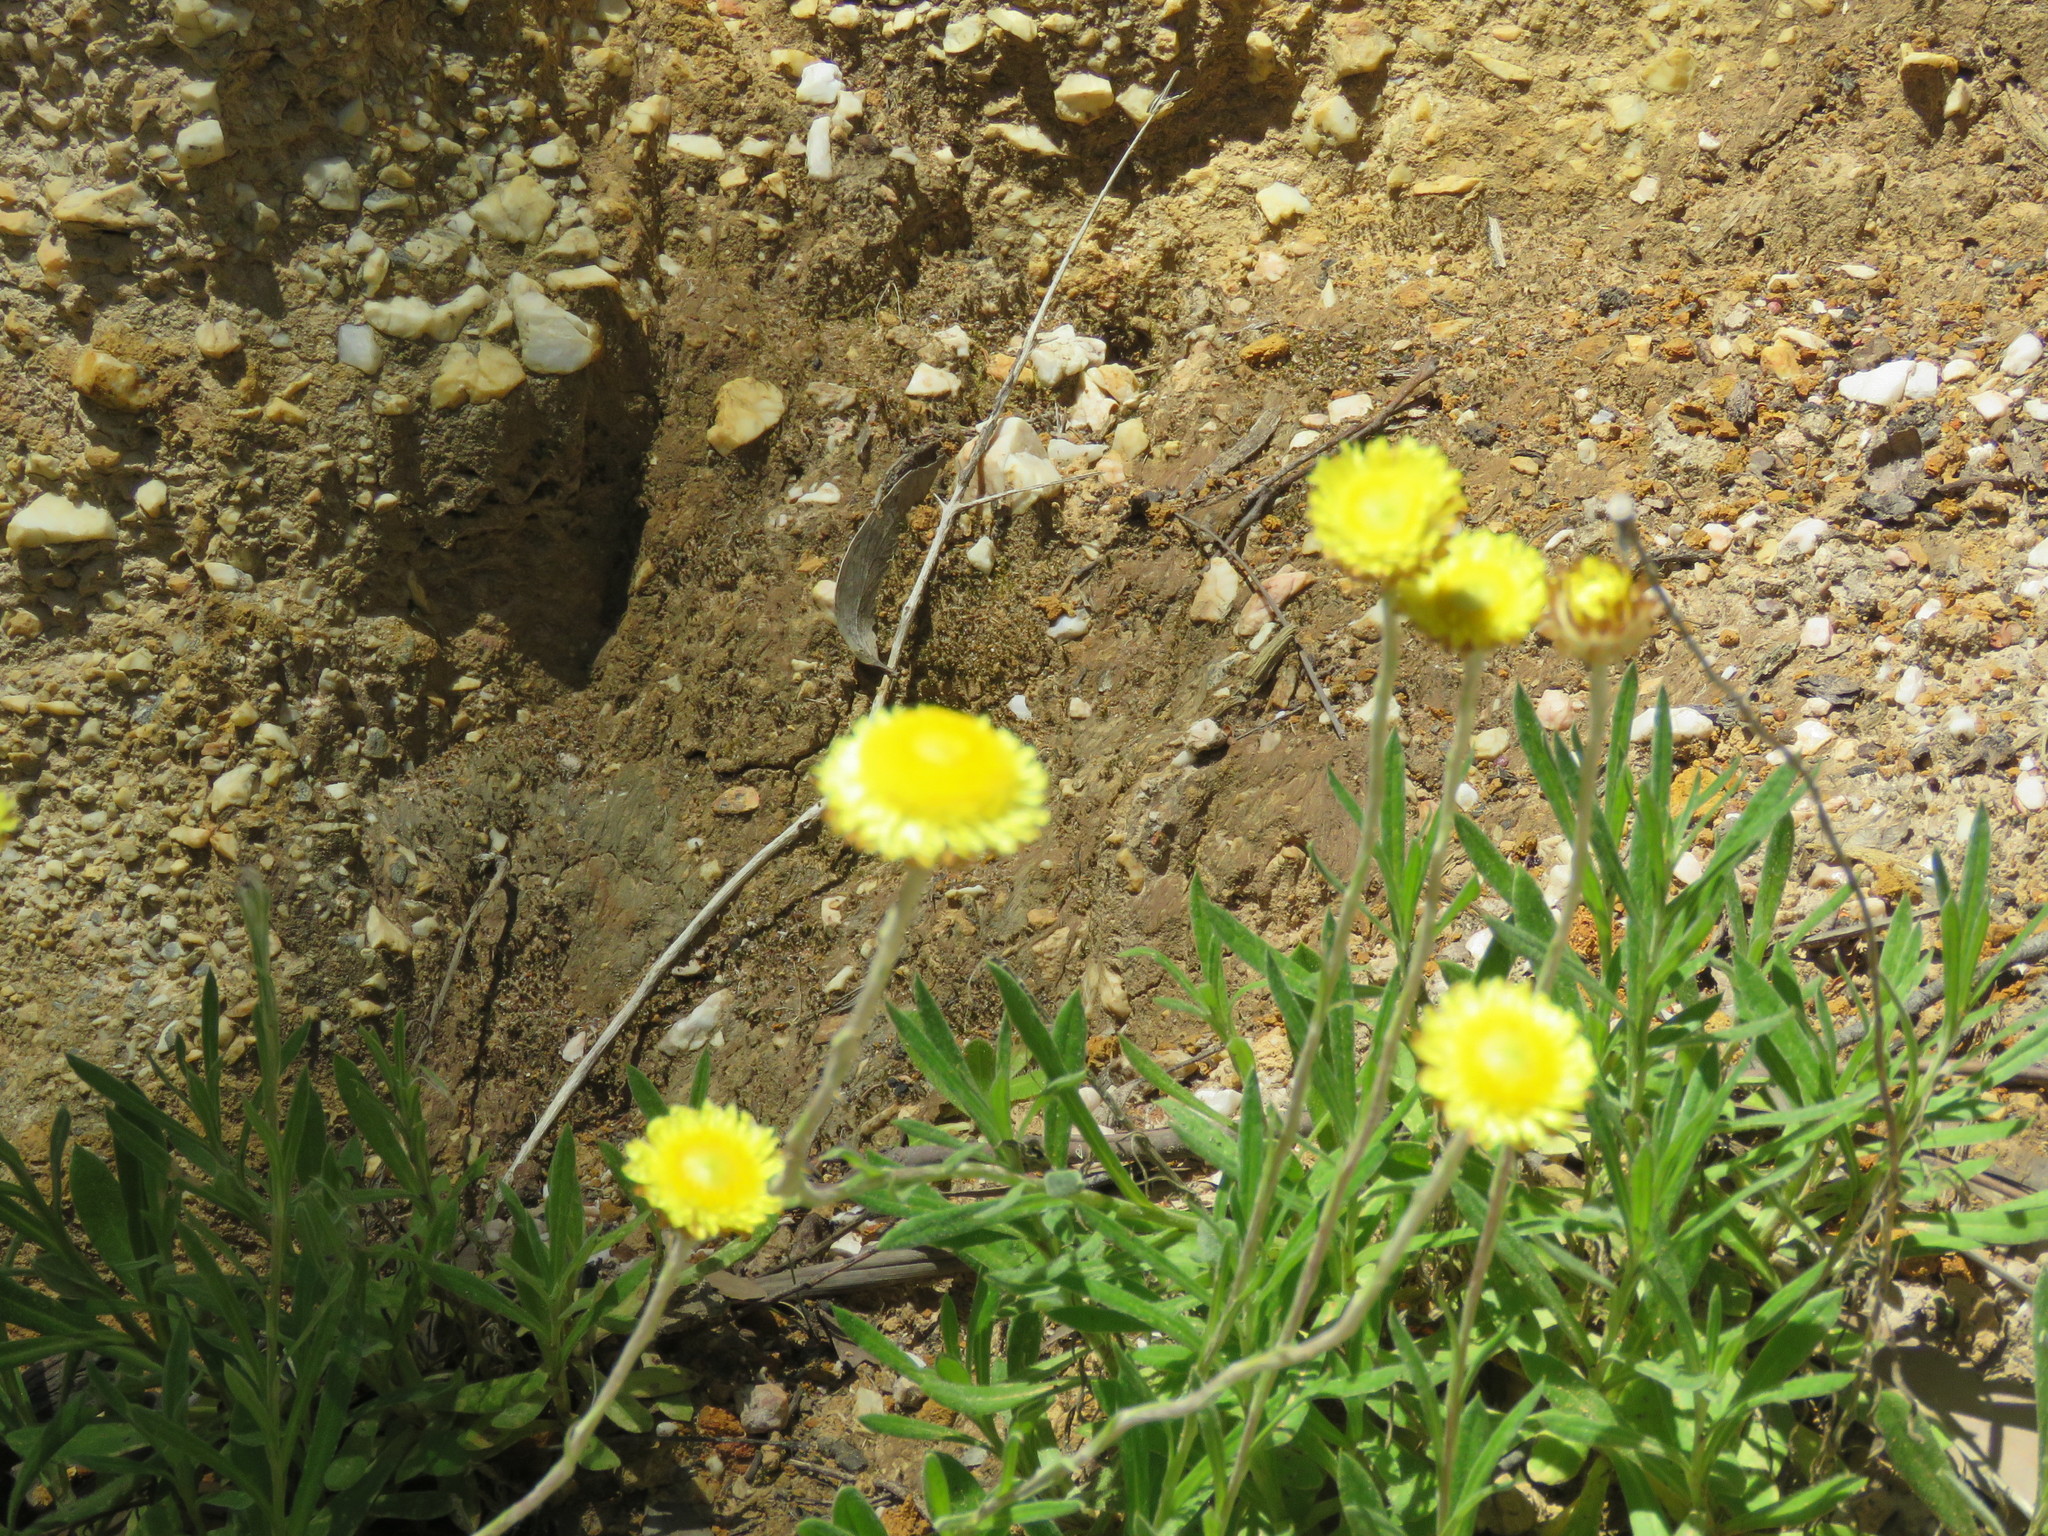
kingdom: Plantae
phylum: Tracheophyta
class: Magnoliopsida
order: Asterales
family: Asteraceae
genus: Coronidium
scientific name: Coronidium scorpioides
